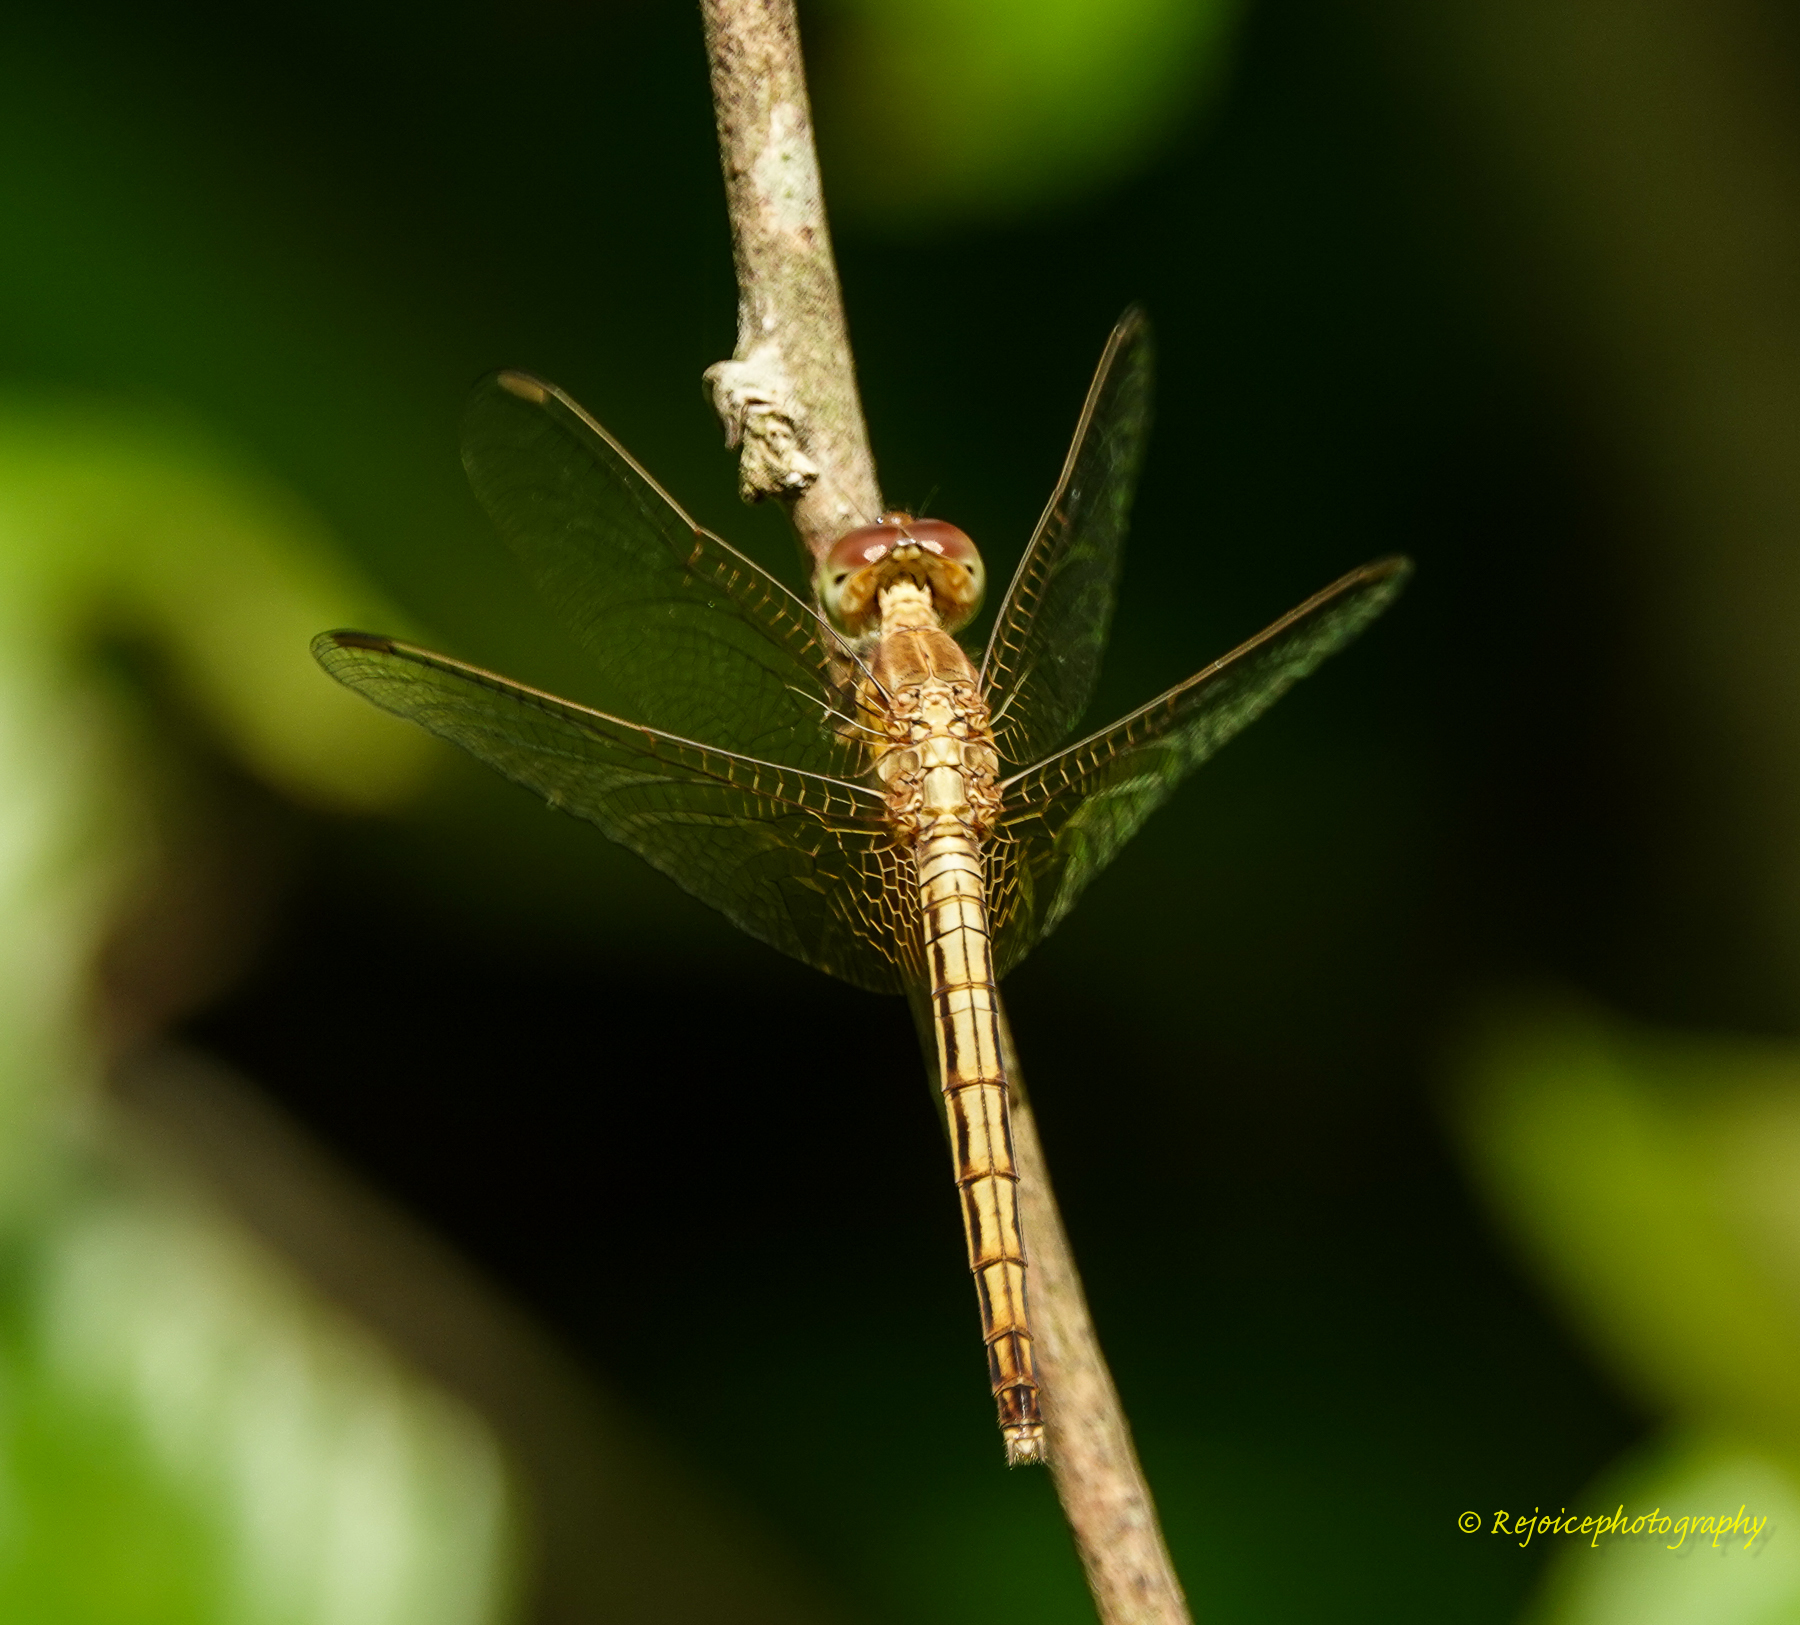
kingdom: Animalia
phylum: Arthropoda
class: Insecta
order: Odonata
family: Libellulidae
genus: Neurothemis
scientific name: Neurothemis intermedia
